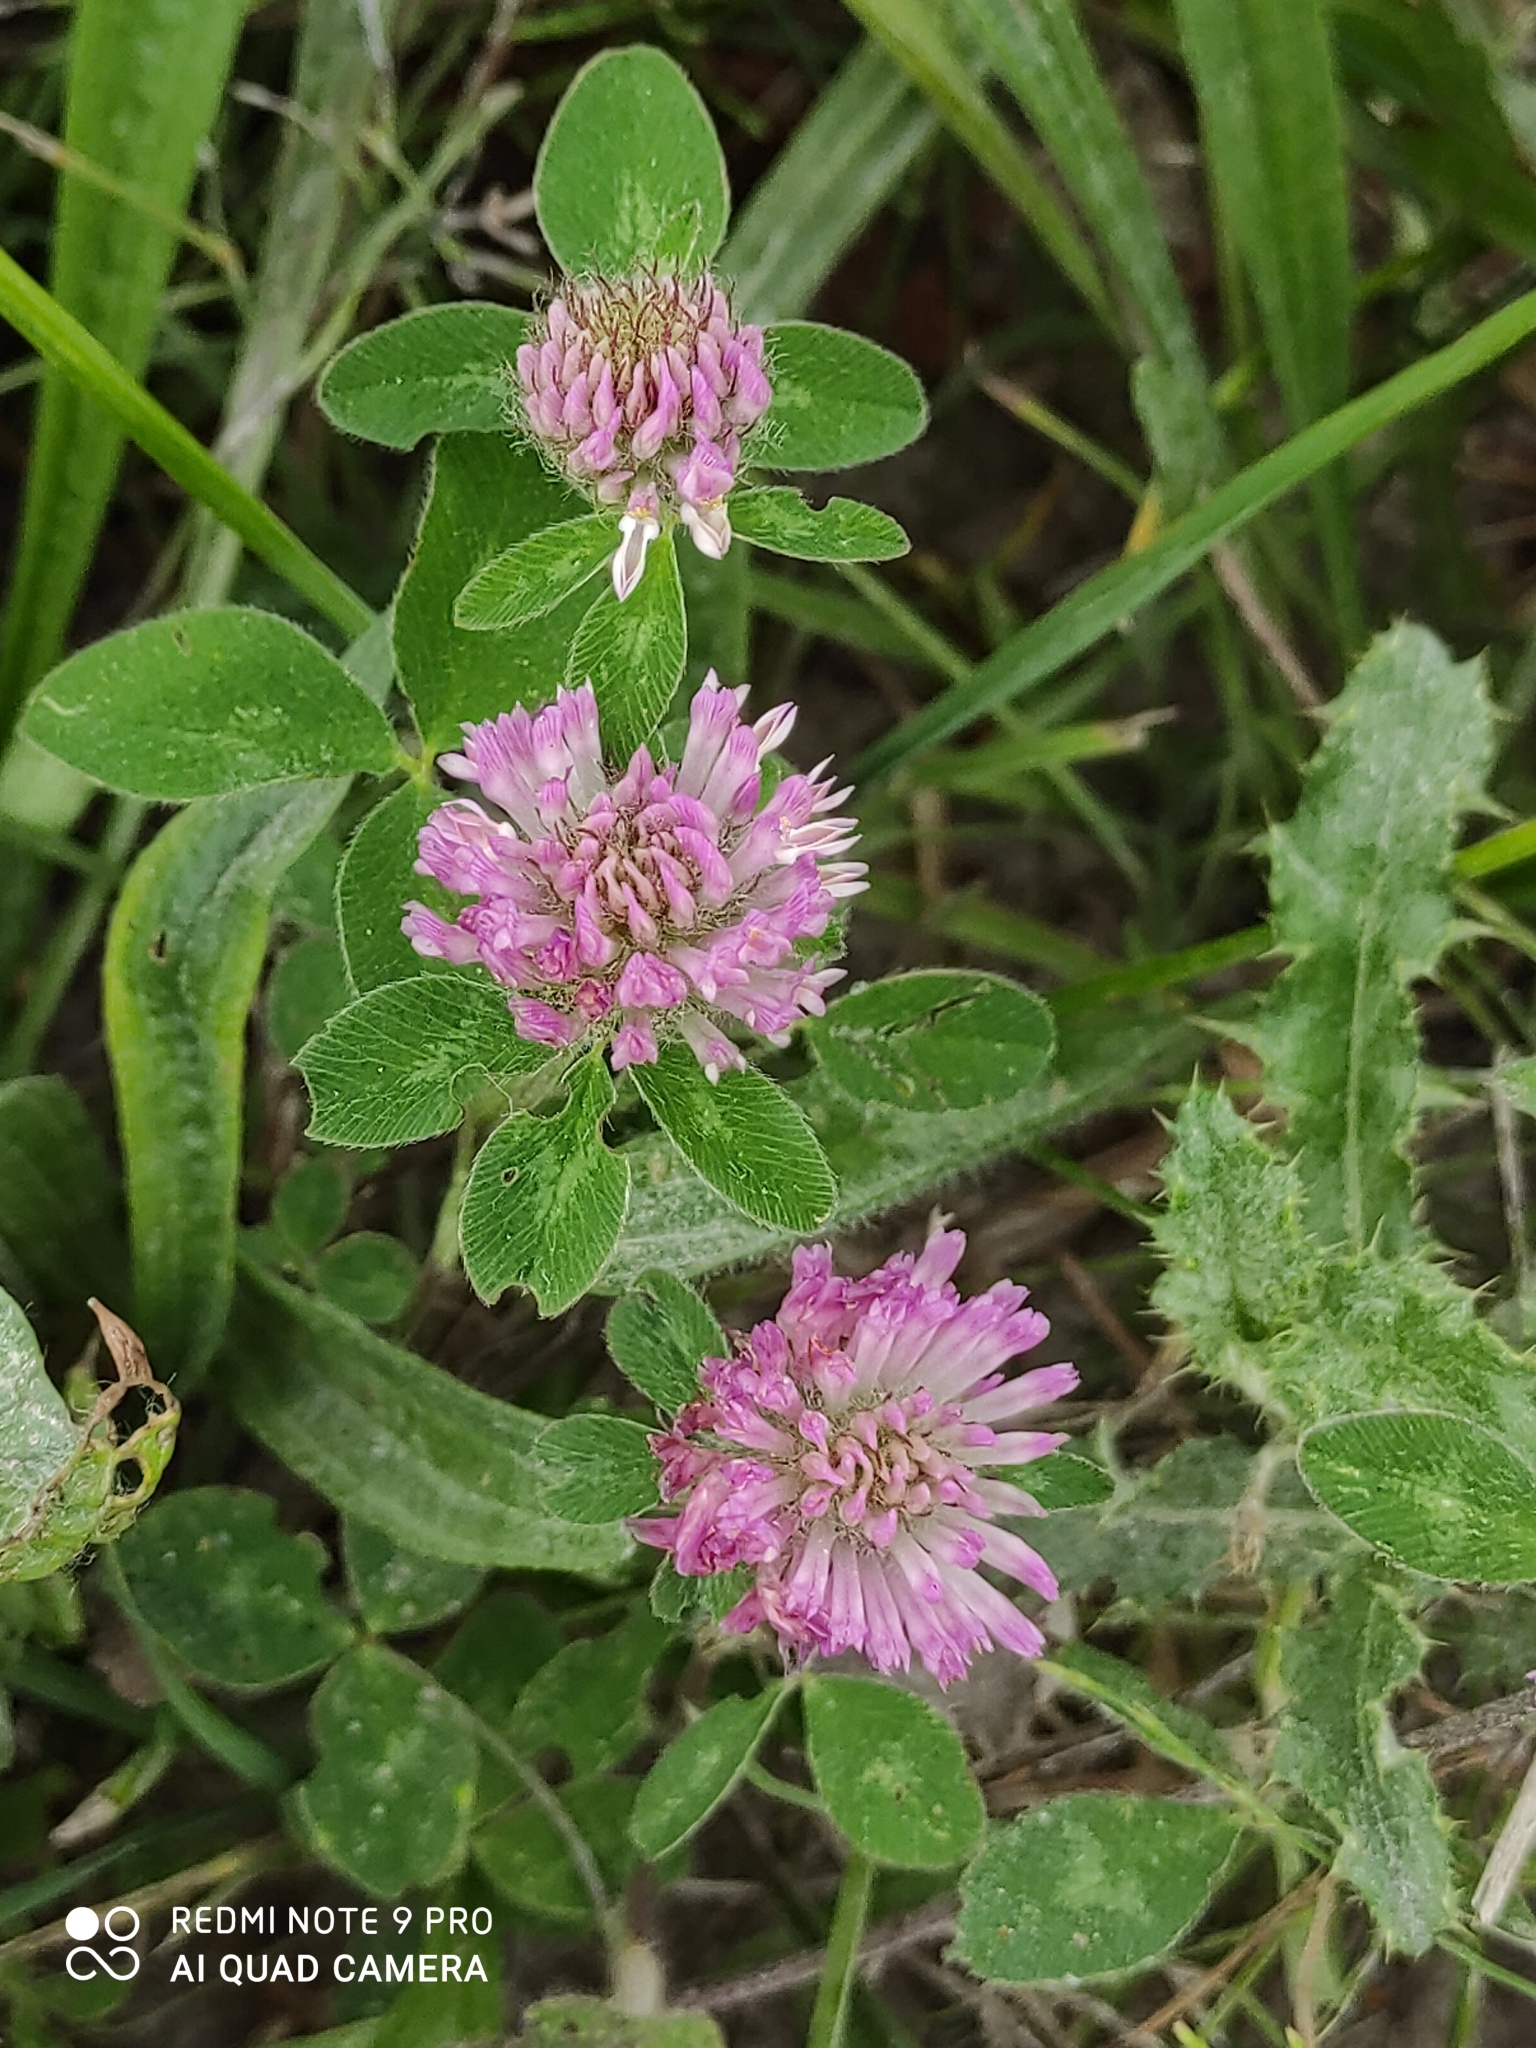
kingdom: Plantae
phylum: Tracheophyta
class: Magnoliopsida
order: Fabales
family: Fabaceae
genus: Trifolium
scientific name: Trifolium pratense
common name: Red clover
